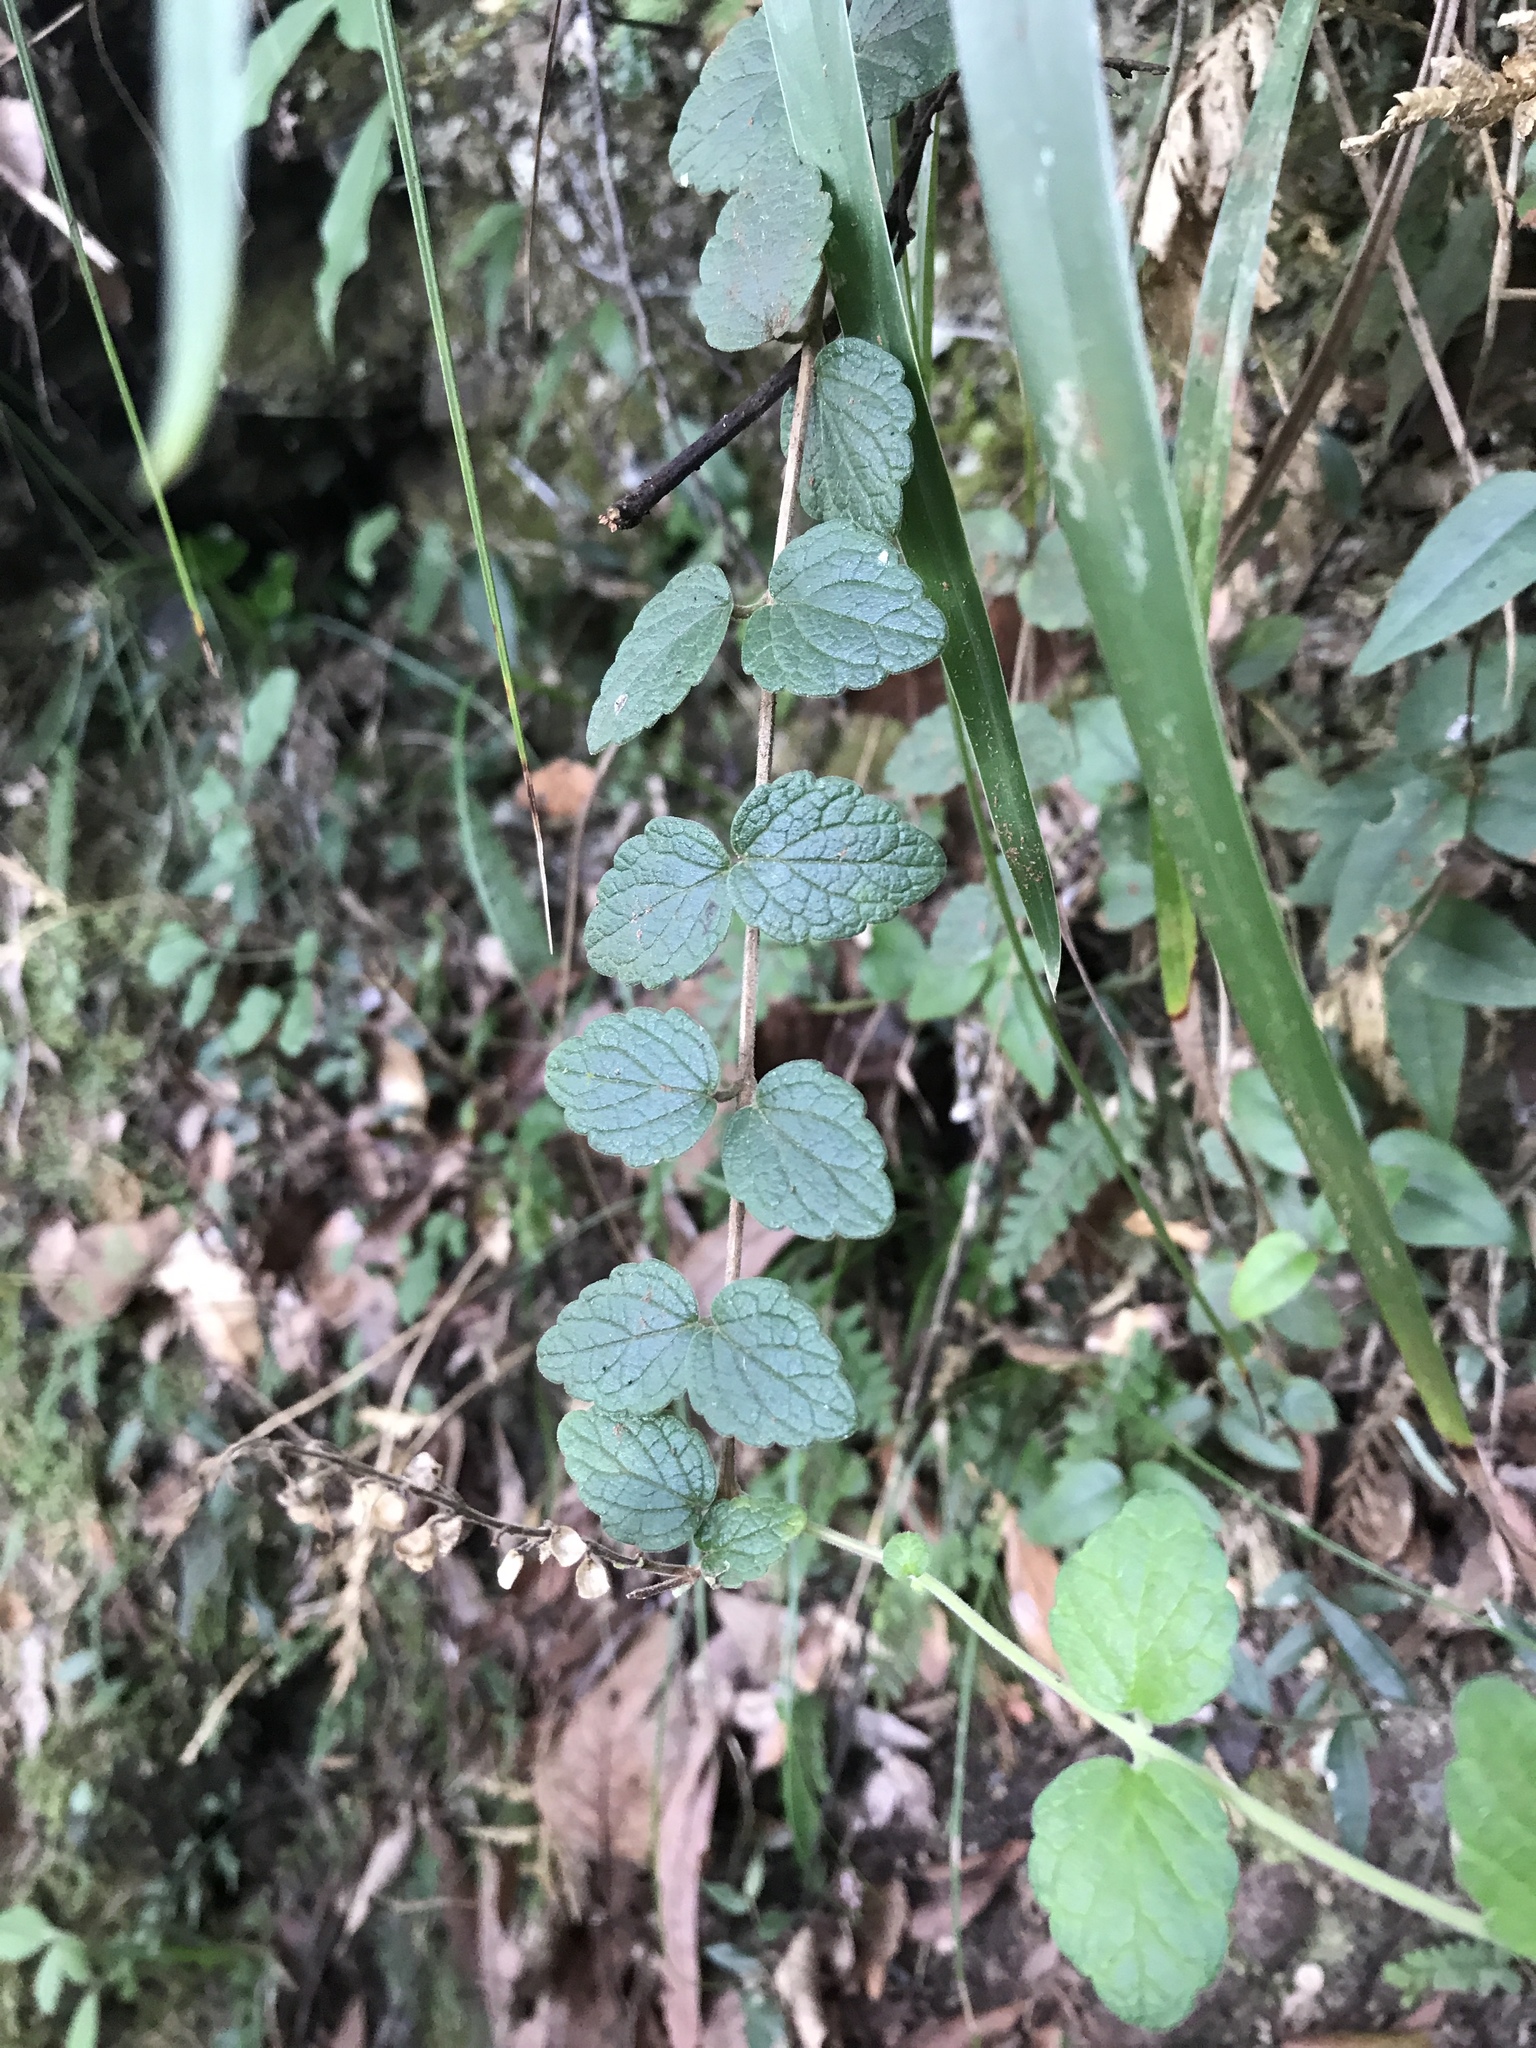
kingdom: Plantae
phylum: Tracheophyta
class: Magnoliopsida
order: Lamiales
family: Lamiaceae
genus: Scutellaria
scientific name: Scutellaria indica
